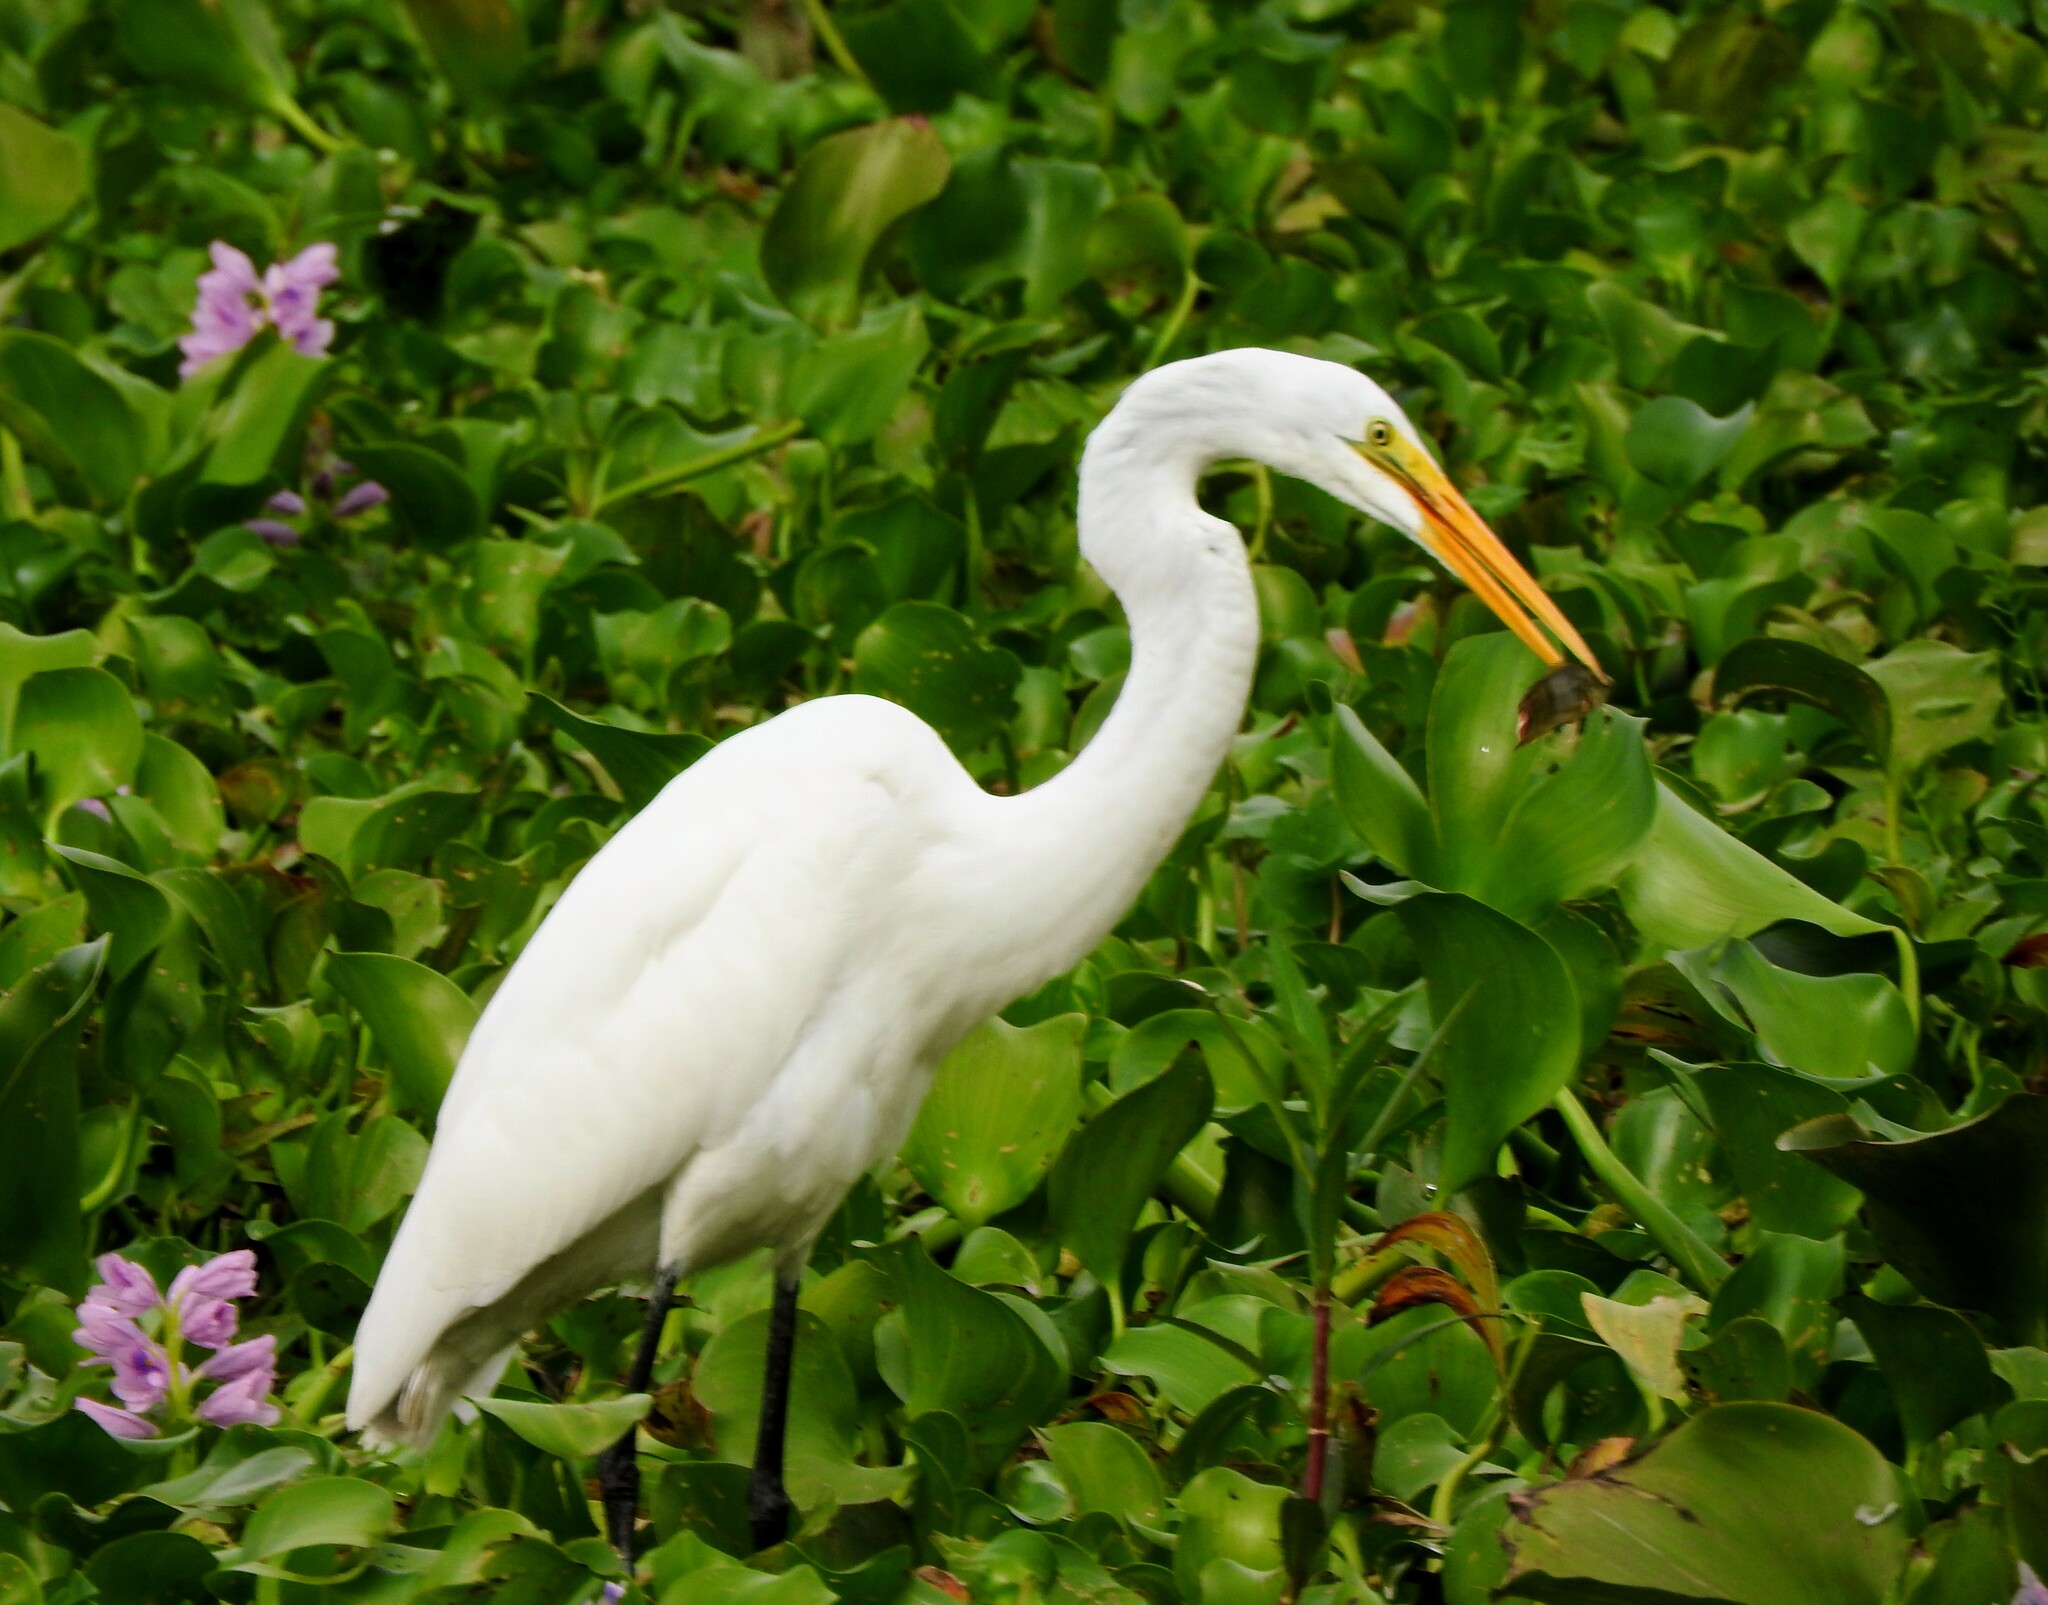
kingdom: Animalia
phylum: Chordata
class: Aves
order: Pelecaniformes
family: Ardeidae
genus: Ardea
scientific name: Ardea alba
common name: Great egret
